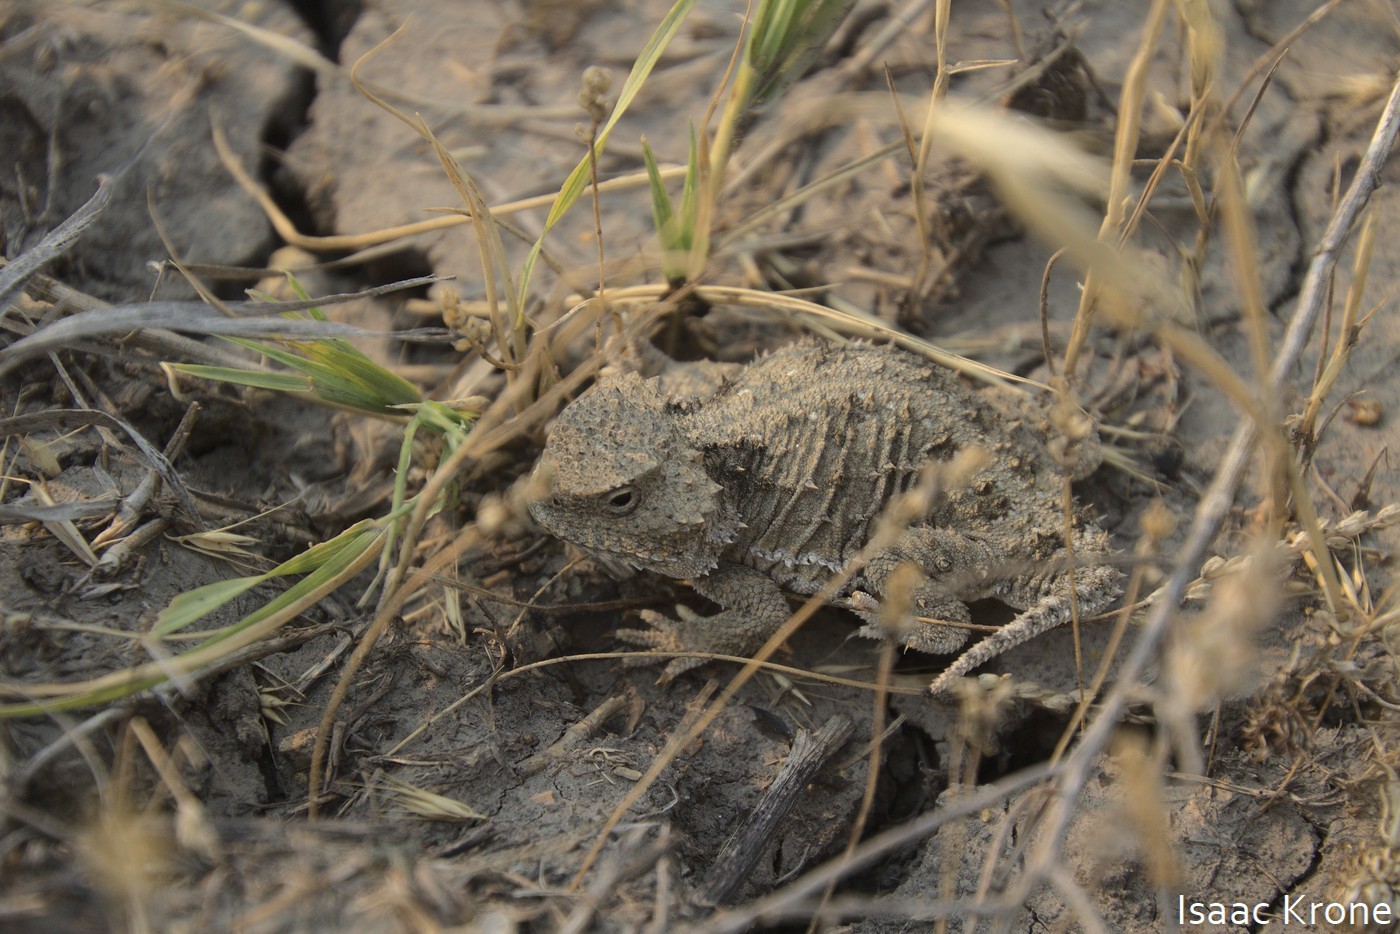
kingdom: Animalia
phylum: Chordata
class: Squamata
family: Phrynosomatidae
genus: Phrynosoma
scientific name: Phrynosoma hernandesi
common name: Greater short-horned lizard
